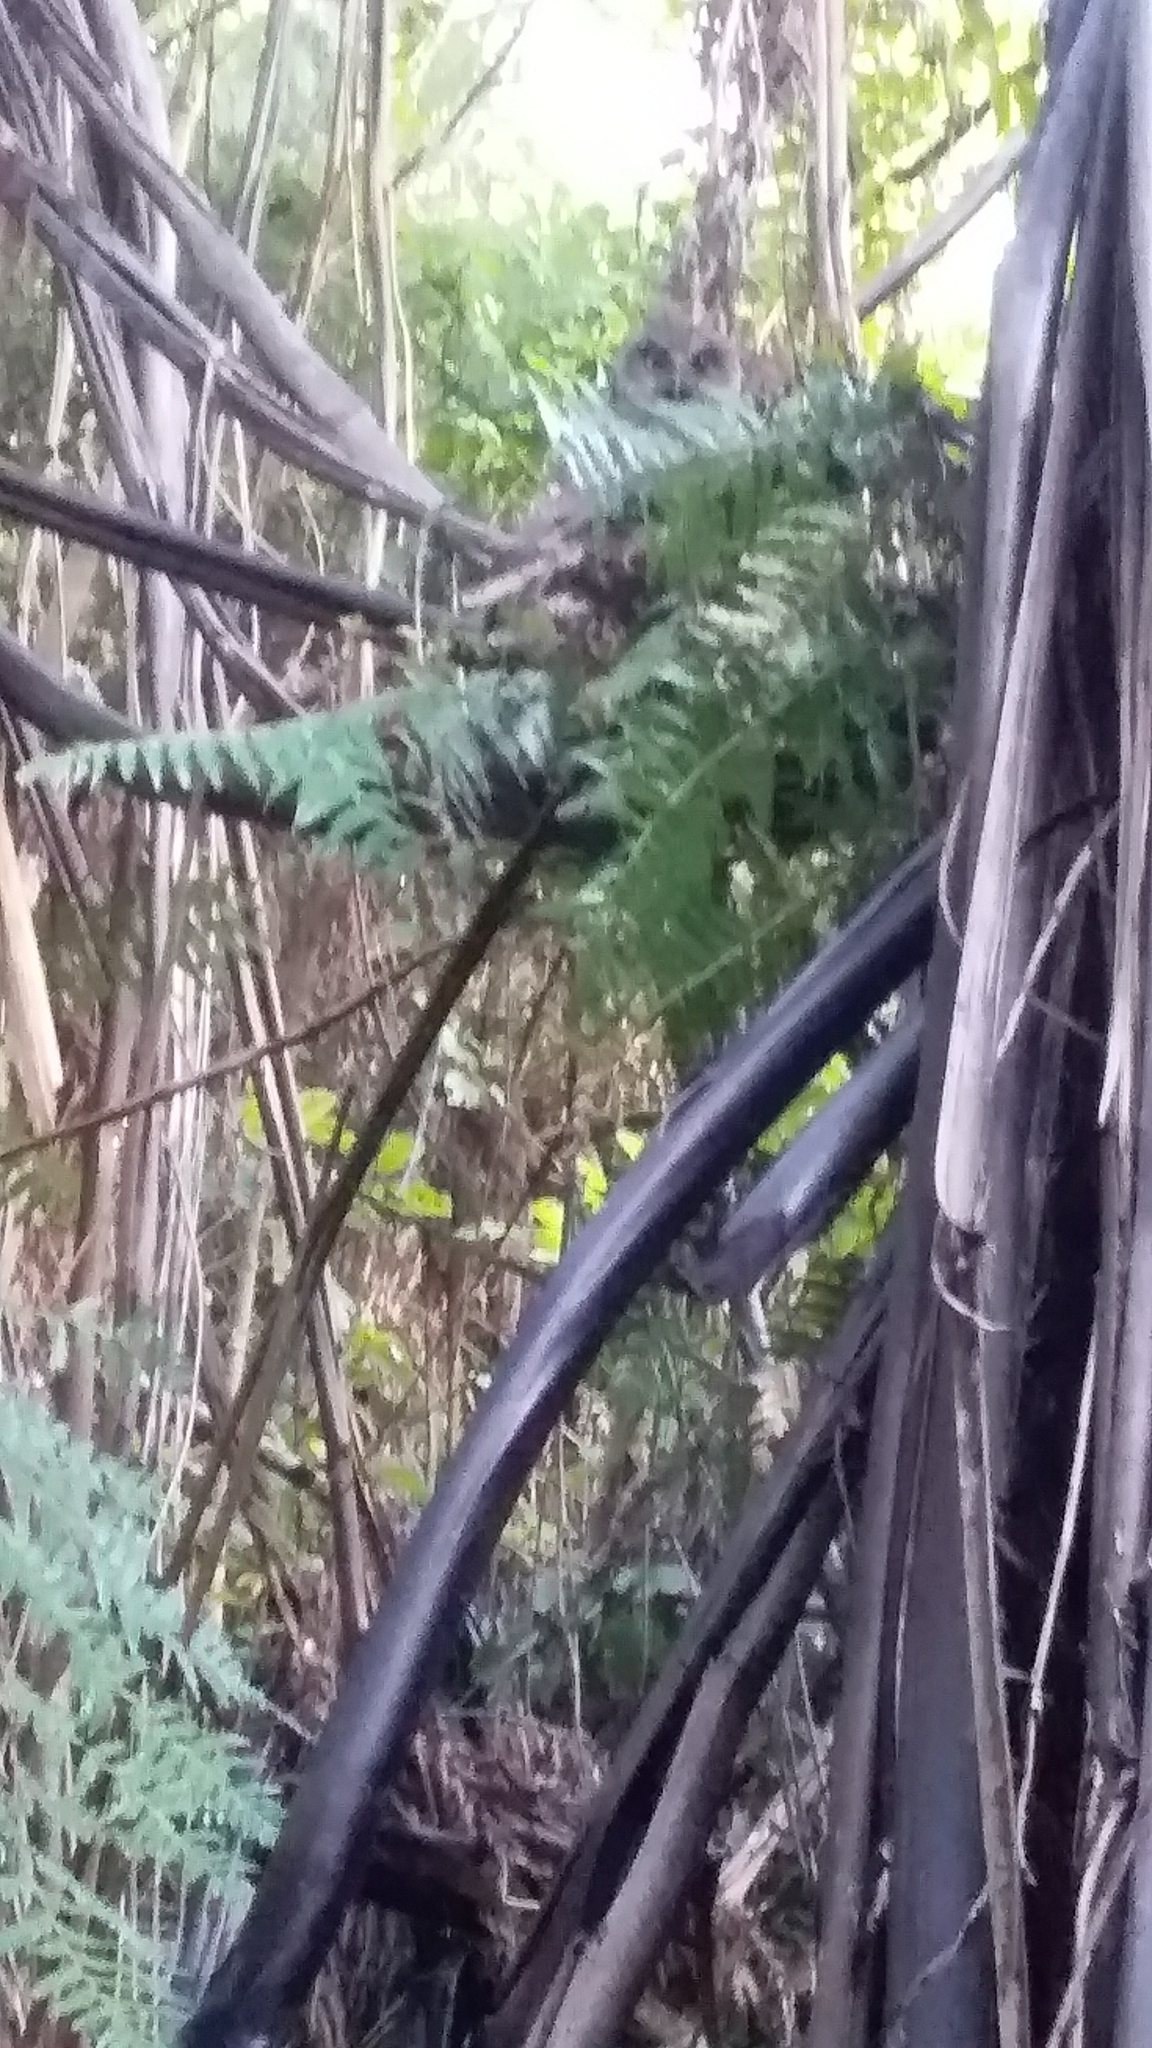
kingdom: Animalia
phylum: Chordata
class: Aves
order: Strigiformes
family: Strigidae
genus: Ninox
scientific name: Ninox novaeseelandiae
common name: Morepork
